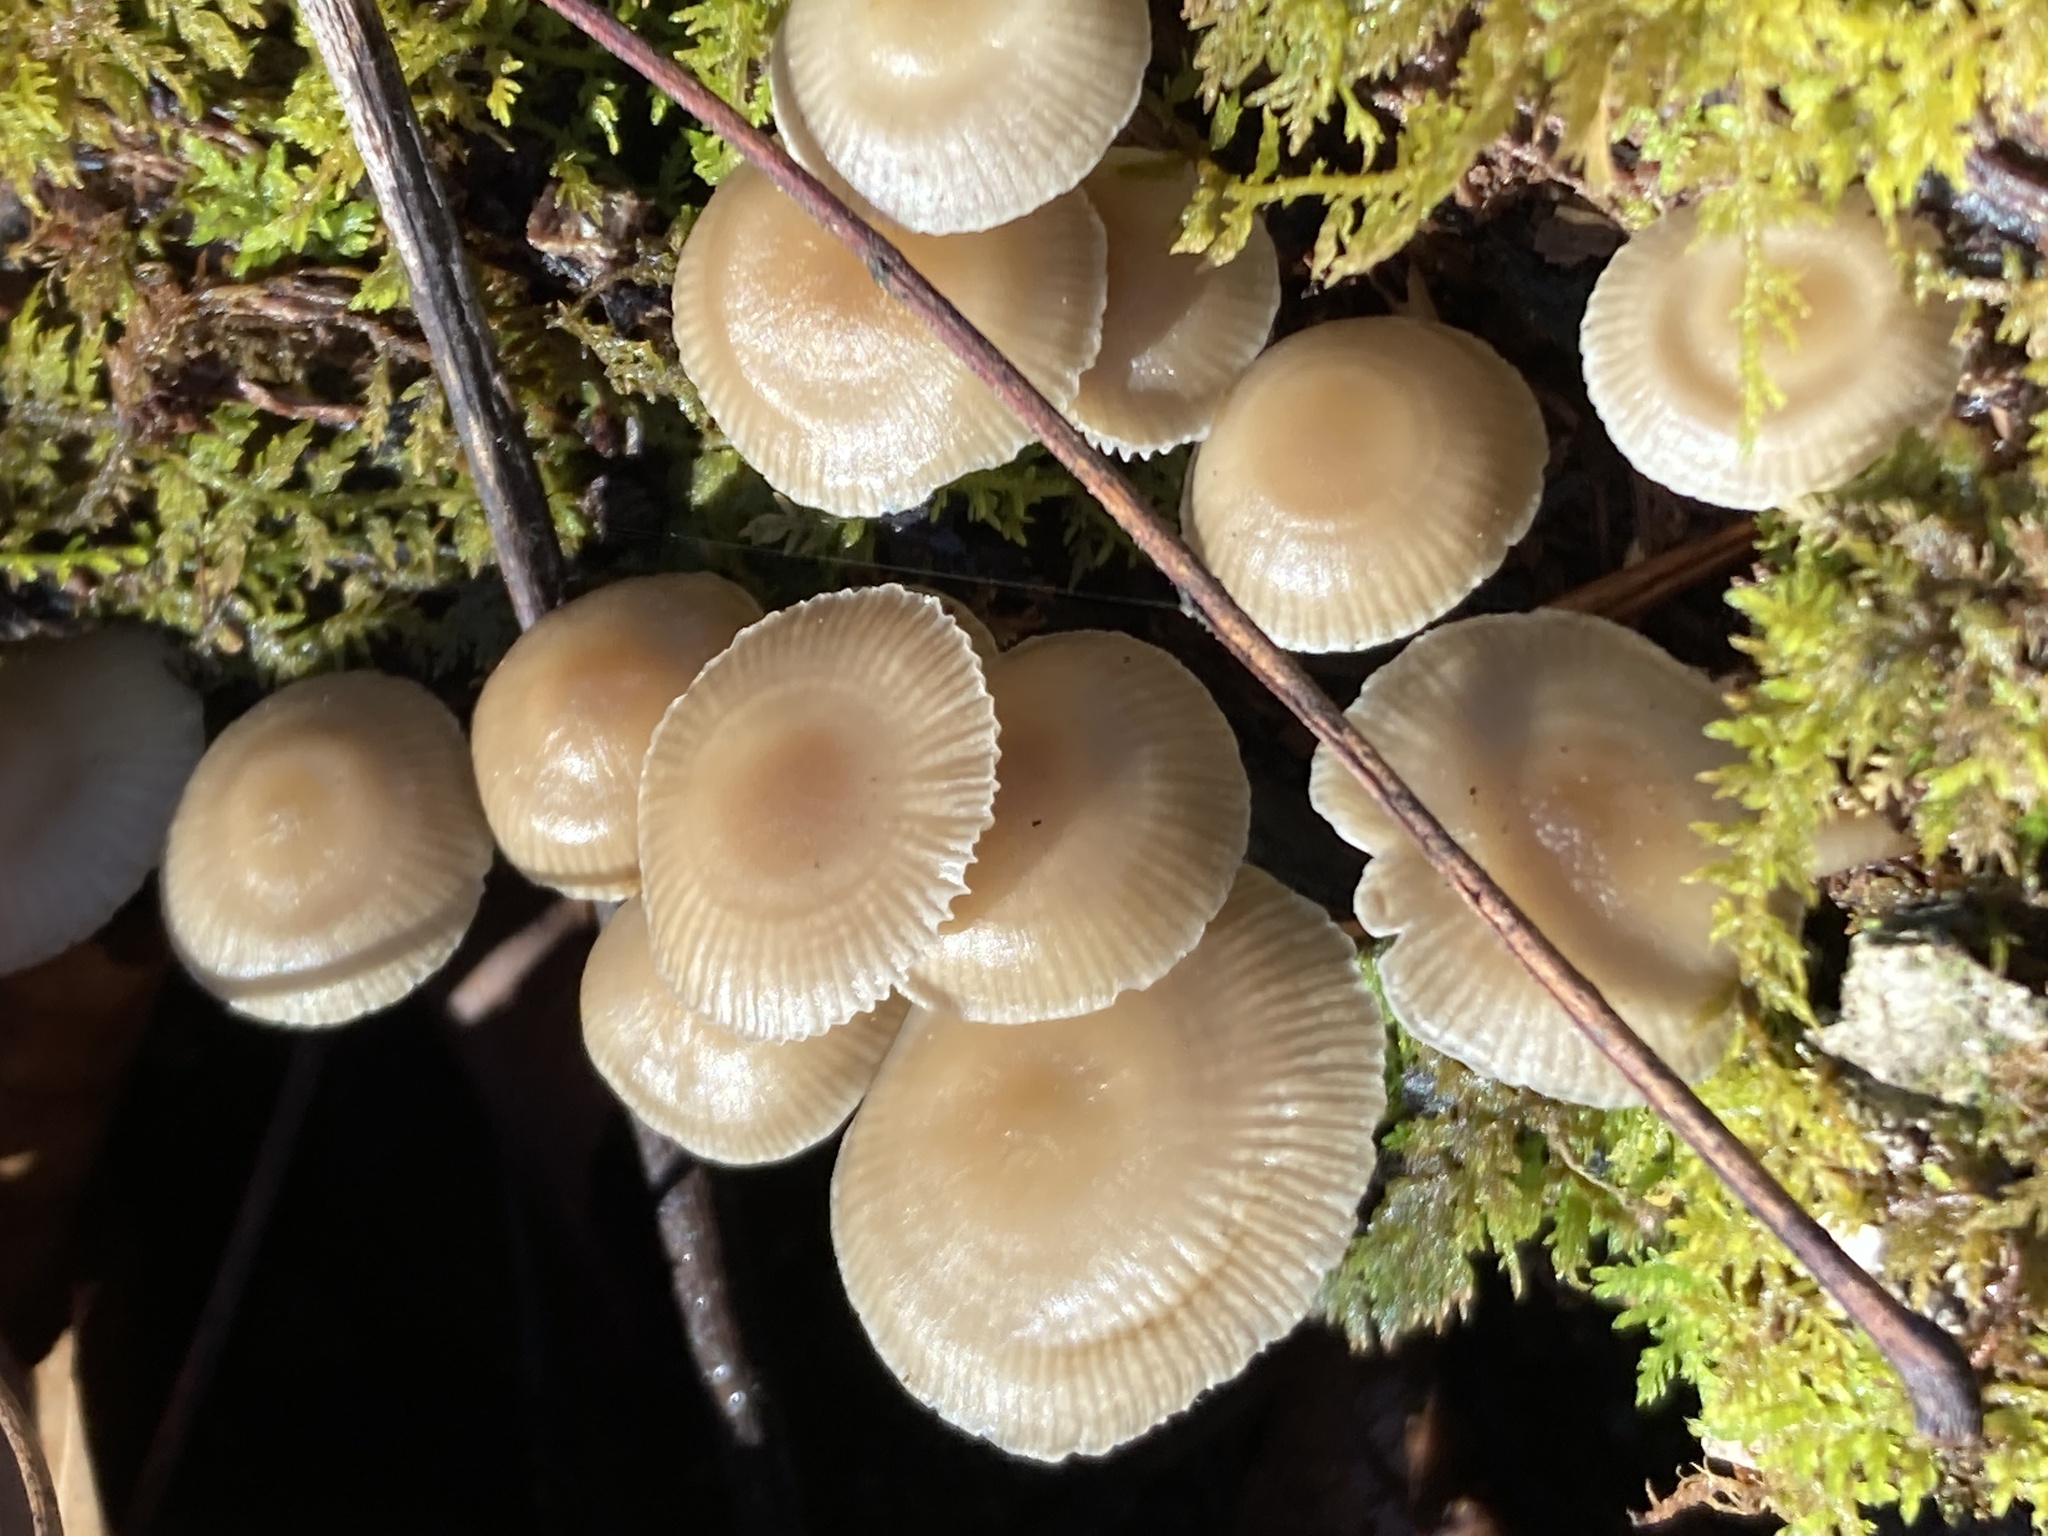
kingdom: Fungi
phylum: Basidiomycota
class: Agaricomycetes
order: Agaricales
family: Mycenaceae
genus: Mycena
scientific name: Mycena galericulata
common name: Bonnet mycena
